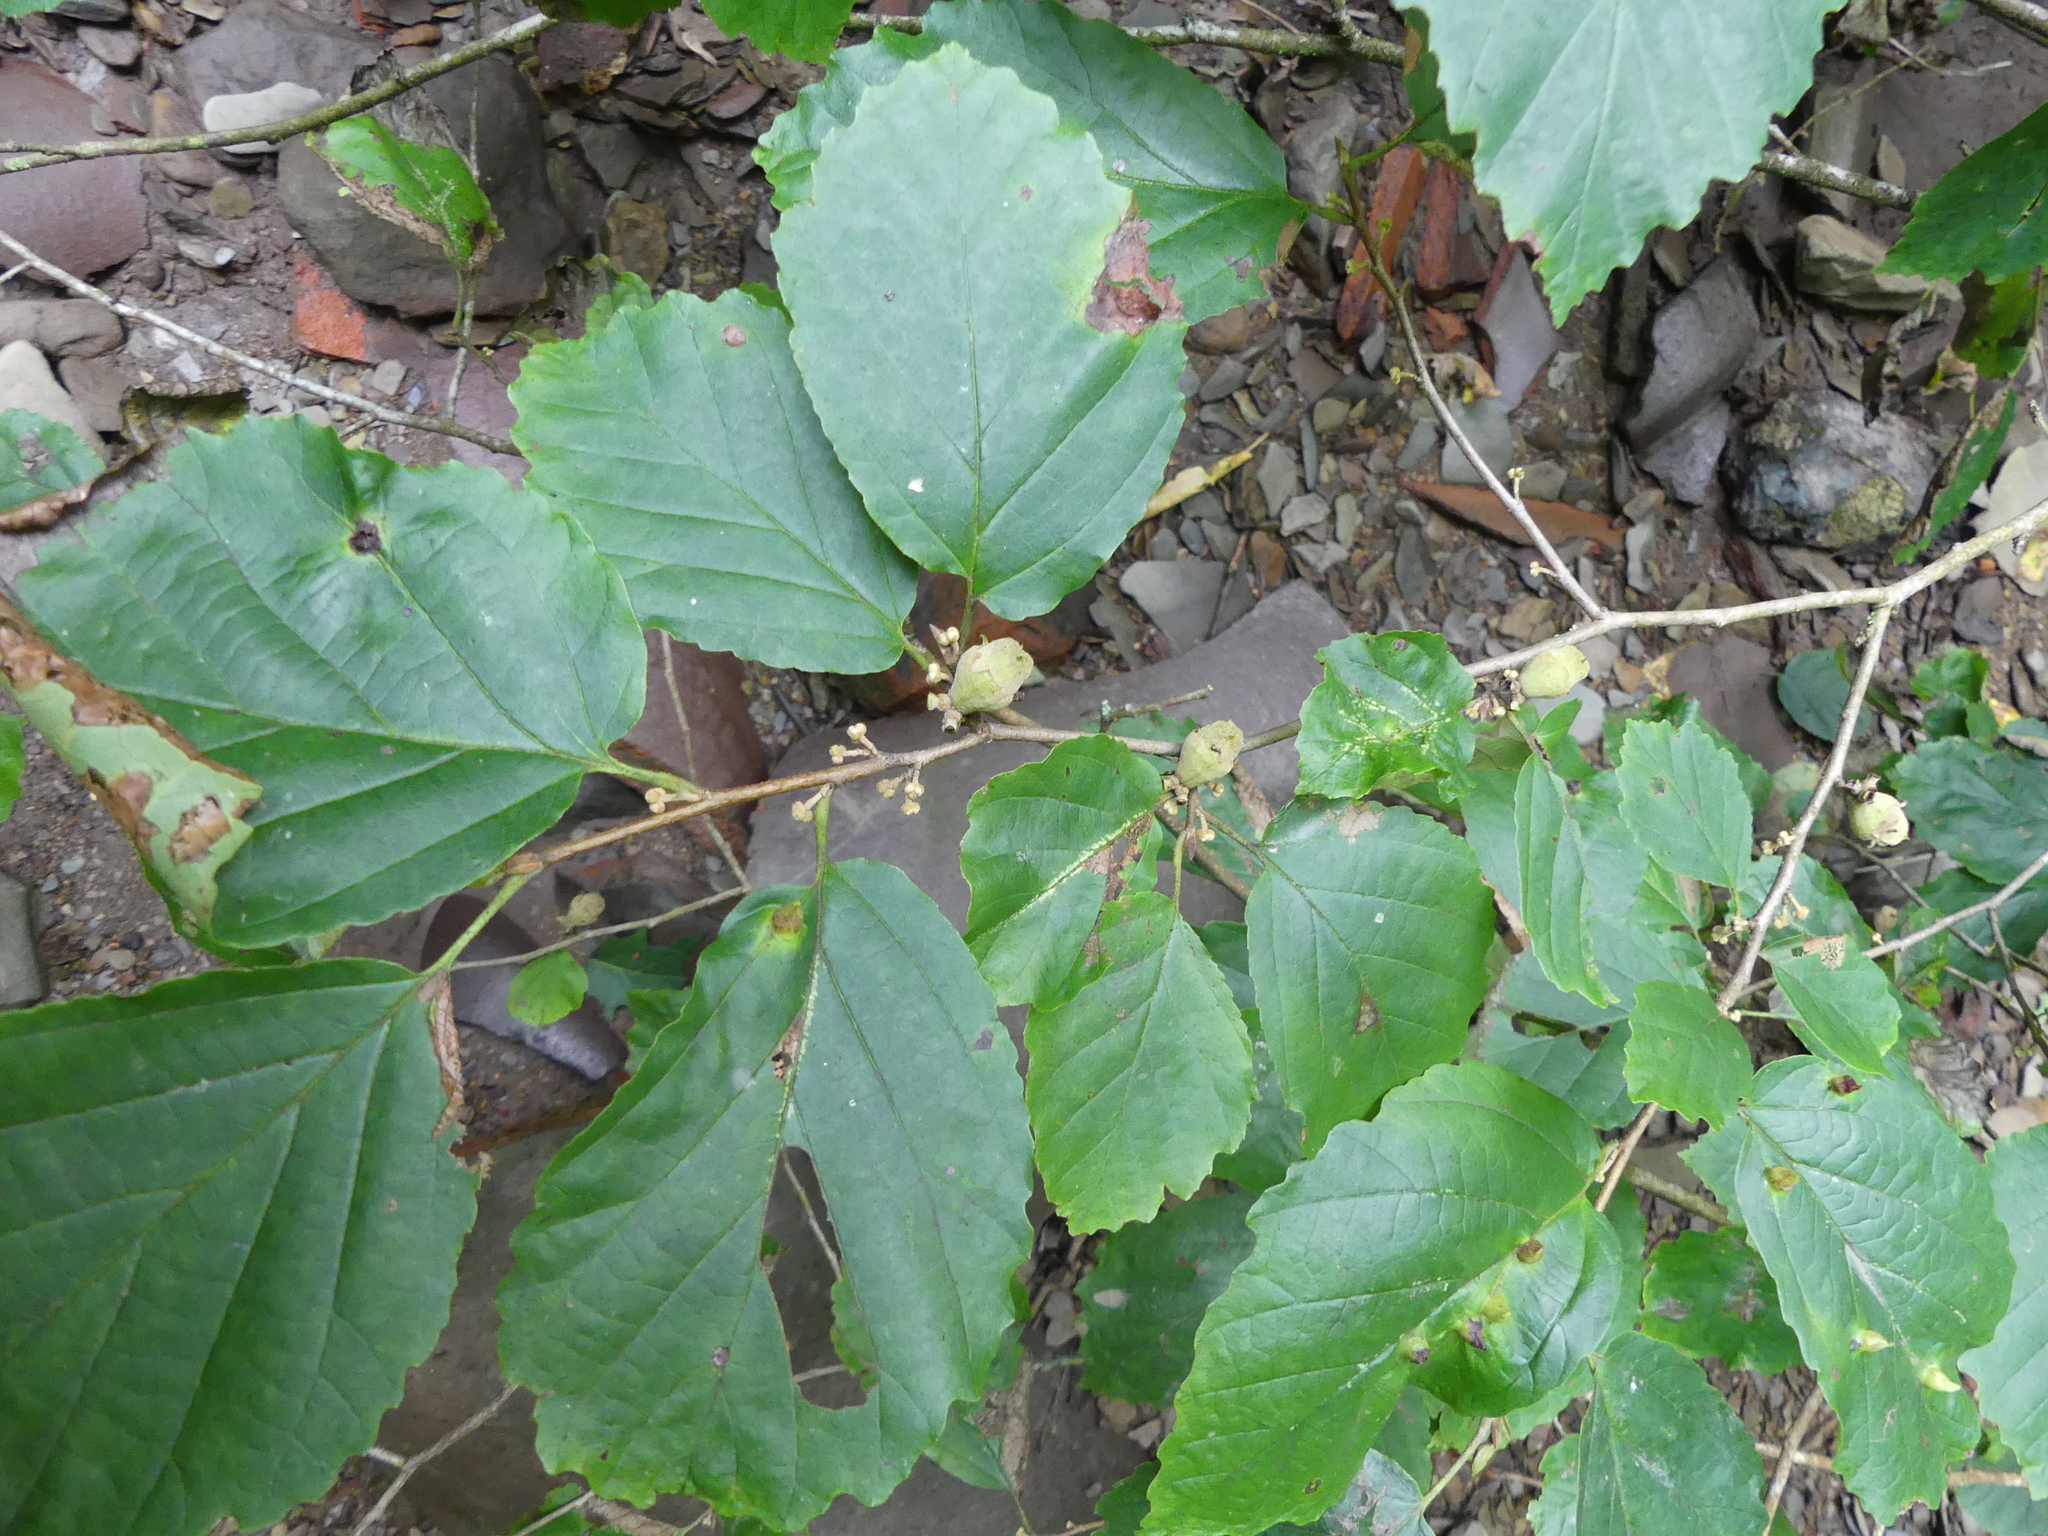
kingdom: Plantae
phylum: Tracheophyta
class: Magnoliopsida
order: Saxifragales
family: Hamamelidaceae
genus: Hamamelis
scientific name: Hamamelis virginiana
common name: Witch-hazel
